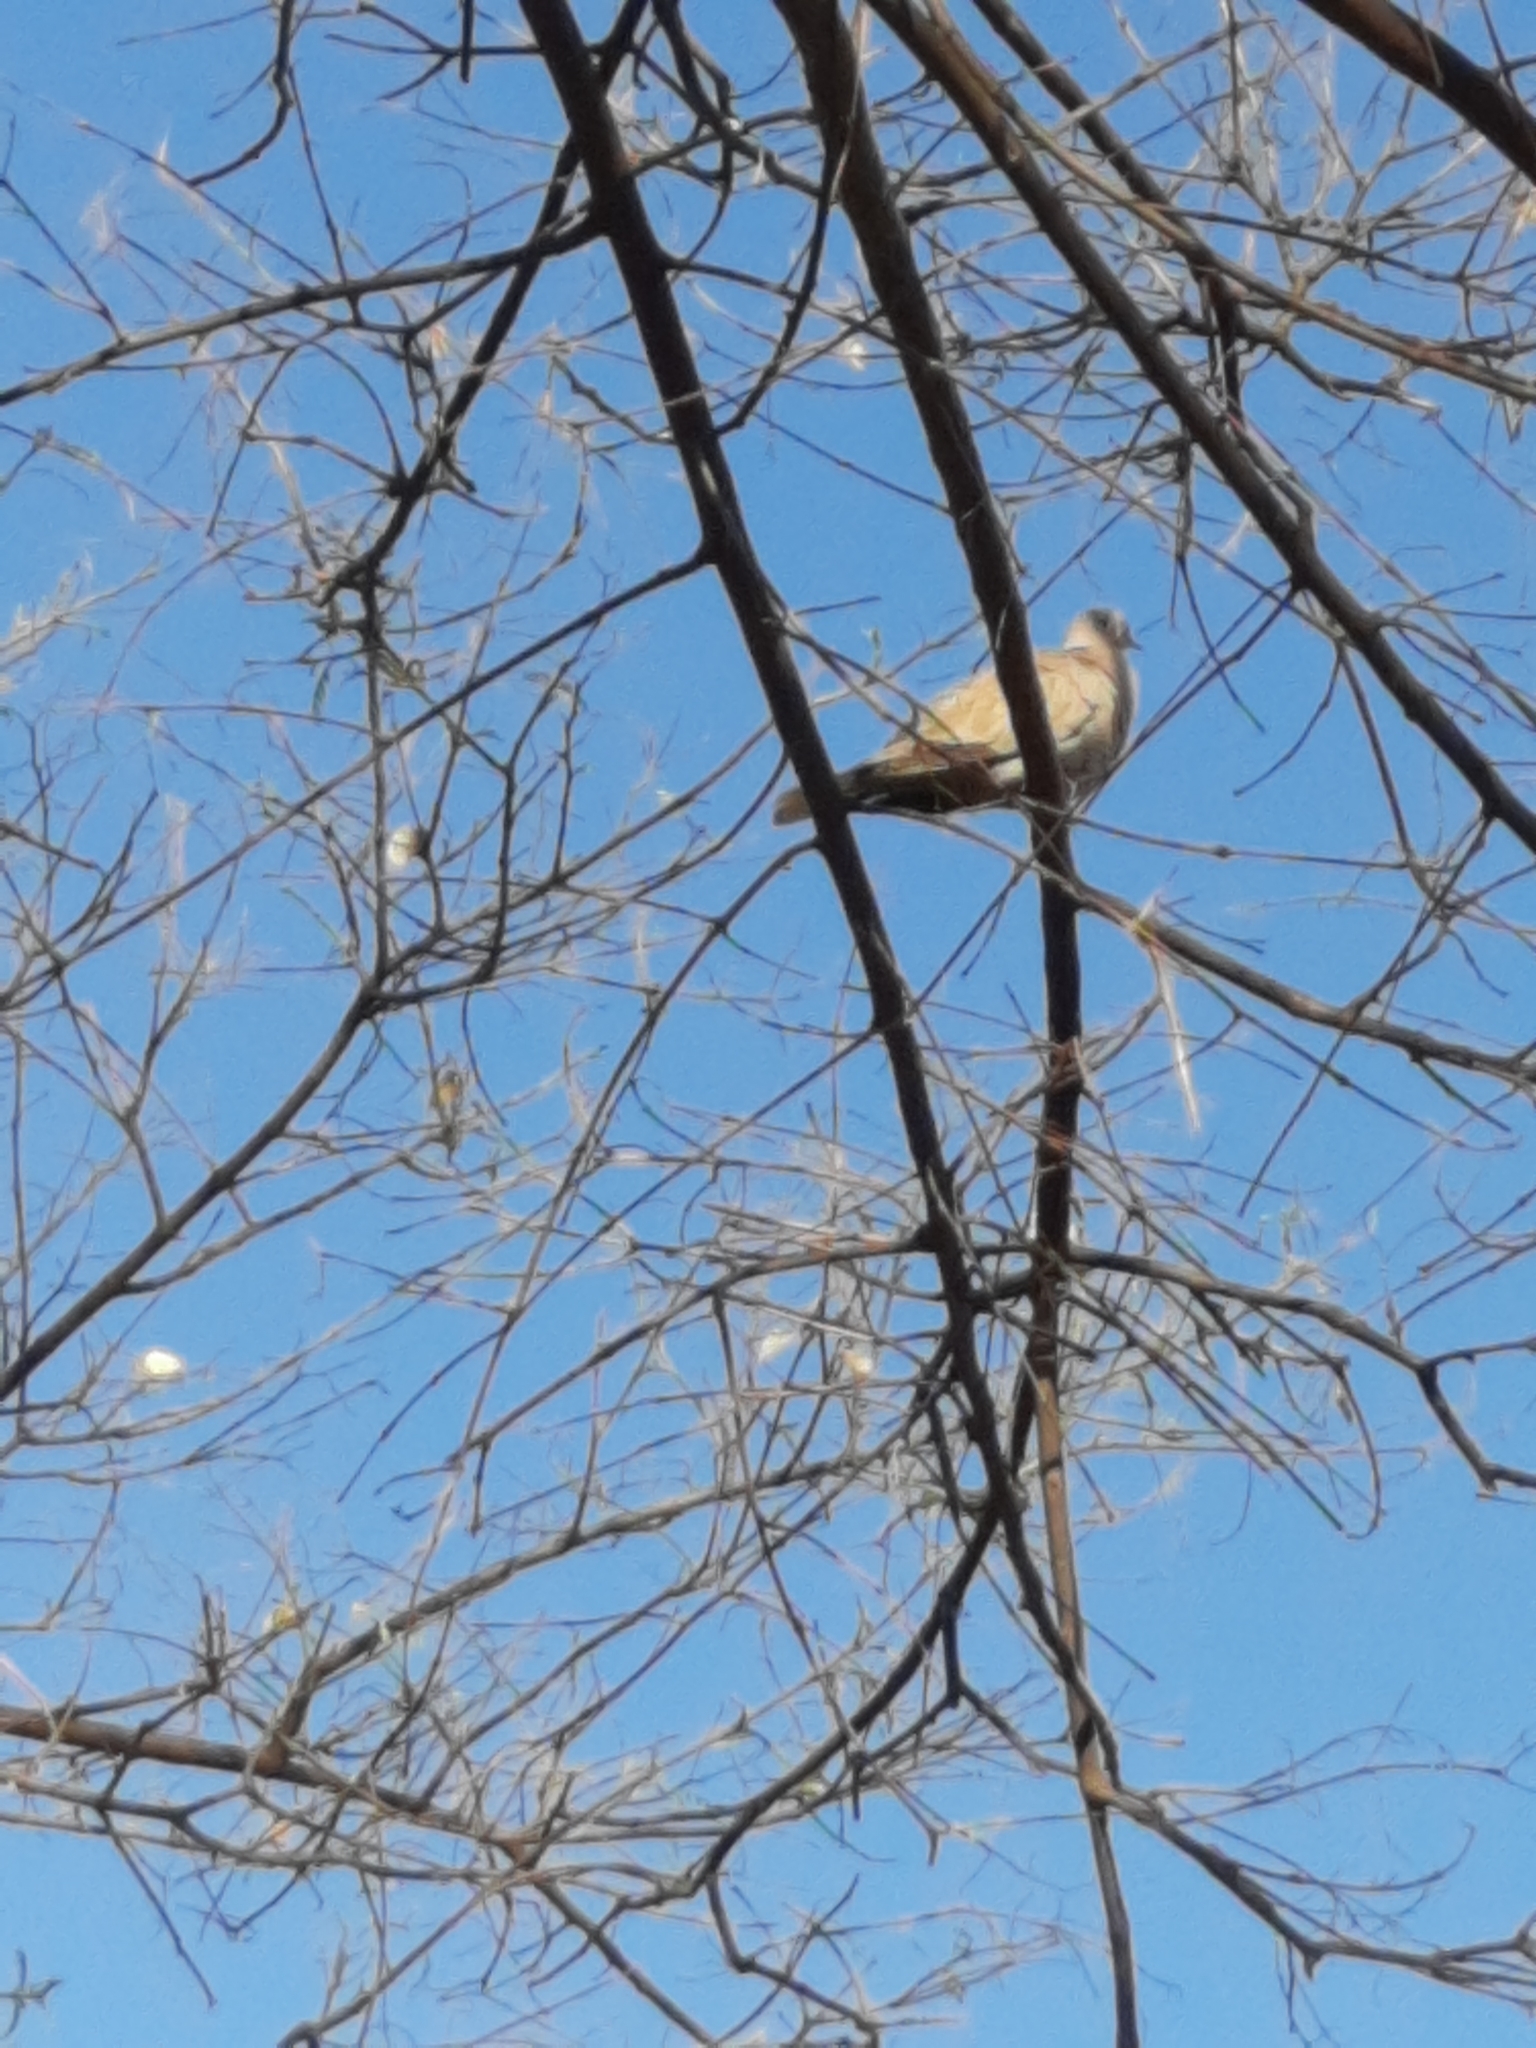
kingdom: Animalia
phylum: Chordata
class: Aves
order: Columbiformes
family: Columbidae
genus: Streptopelia
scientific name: Streptopelia decaocto
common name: Eurasian collared dove
